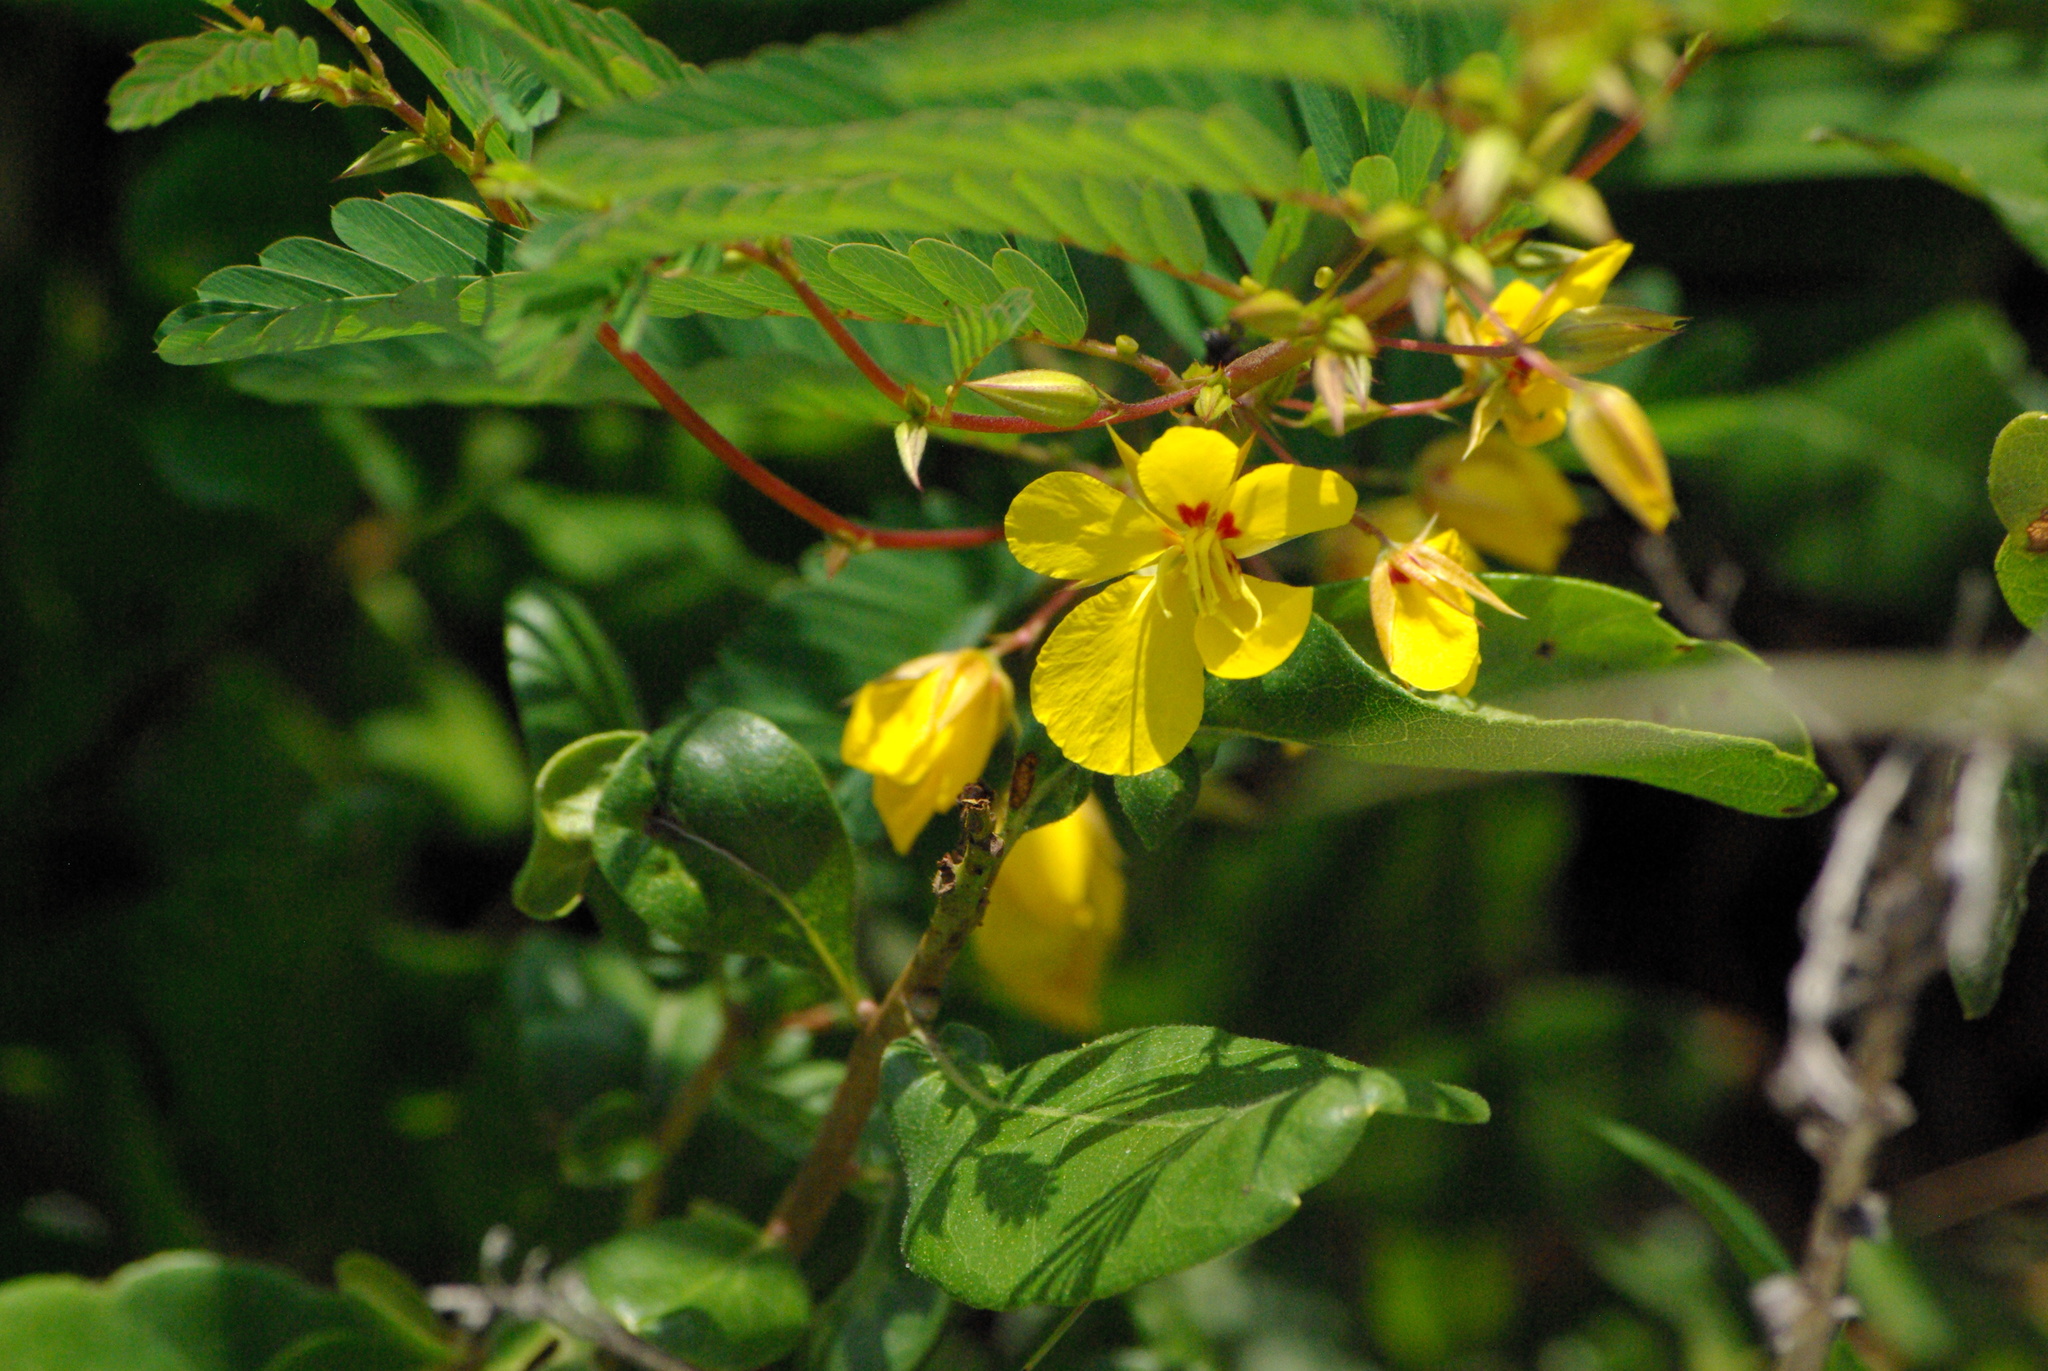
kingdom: Plantae
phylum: Tracheophyta
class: Magnoliopsida
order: Fabales
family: Fabaceae
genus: Chamaecrista
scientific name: Chamaecrista fasciculata
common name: Golden cassia
